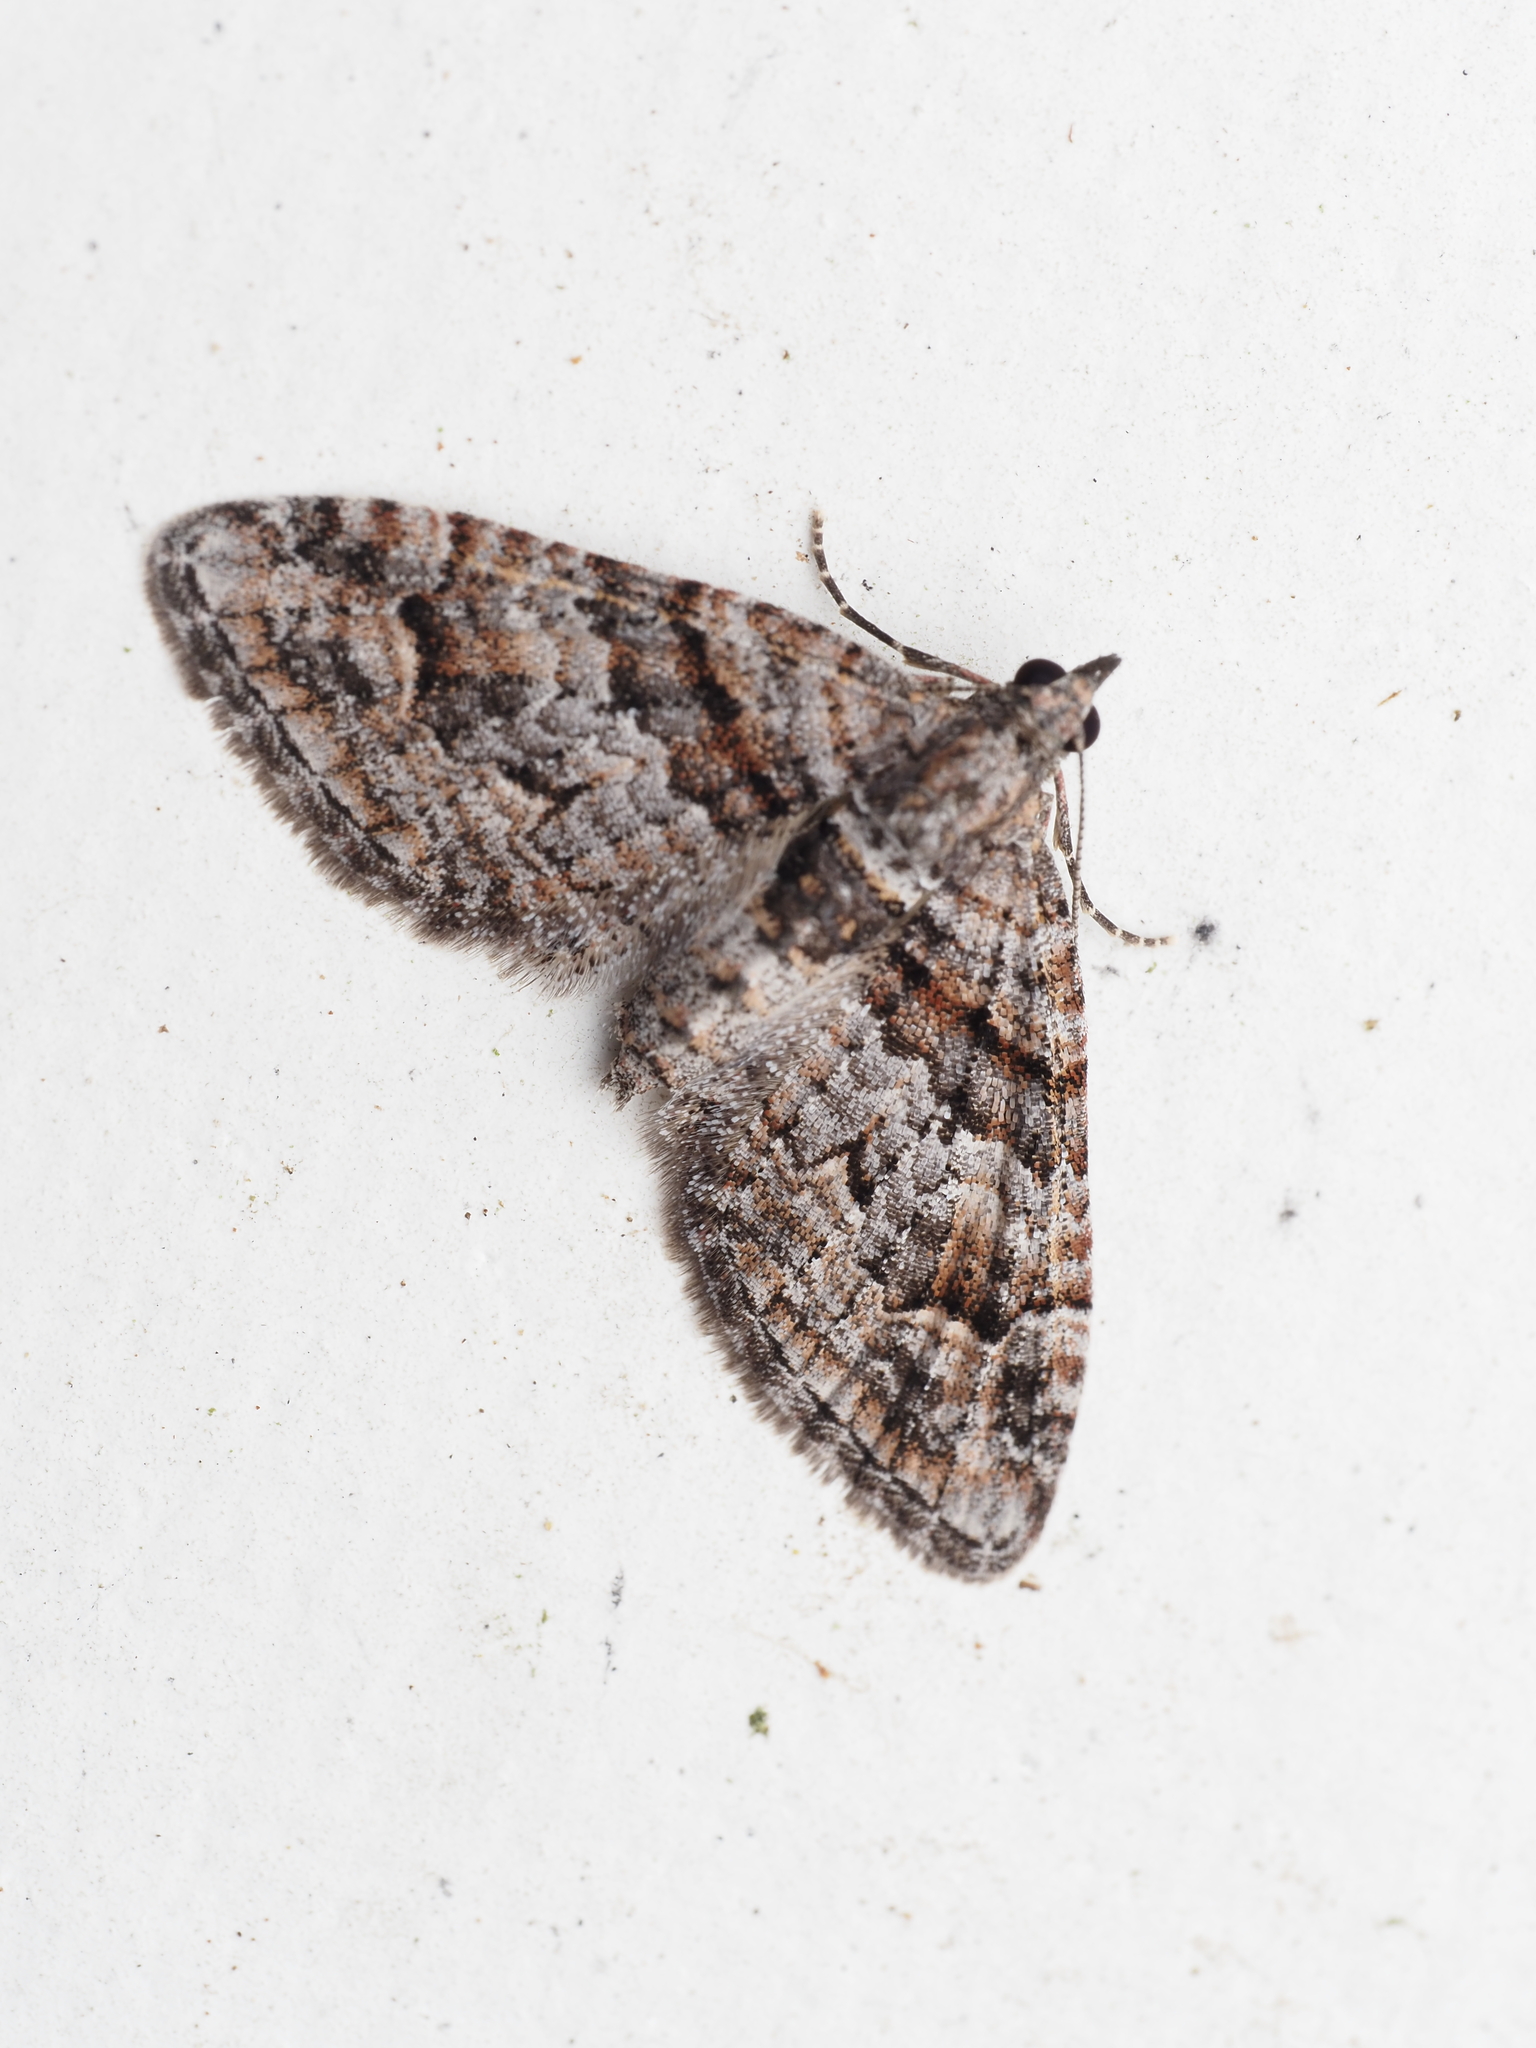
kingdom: Animalia
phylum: Arthropoda
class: Insecta
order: Lepidoptera
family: Geometridae
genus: Phrissogonus
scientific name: Phrissogonus laticostata
